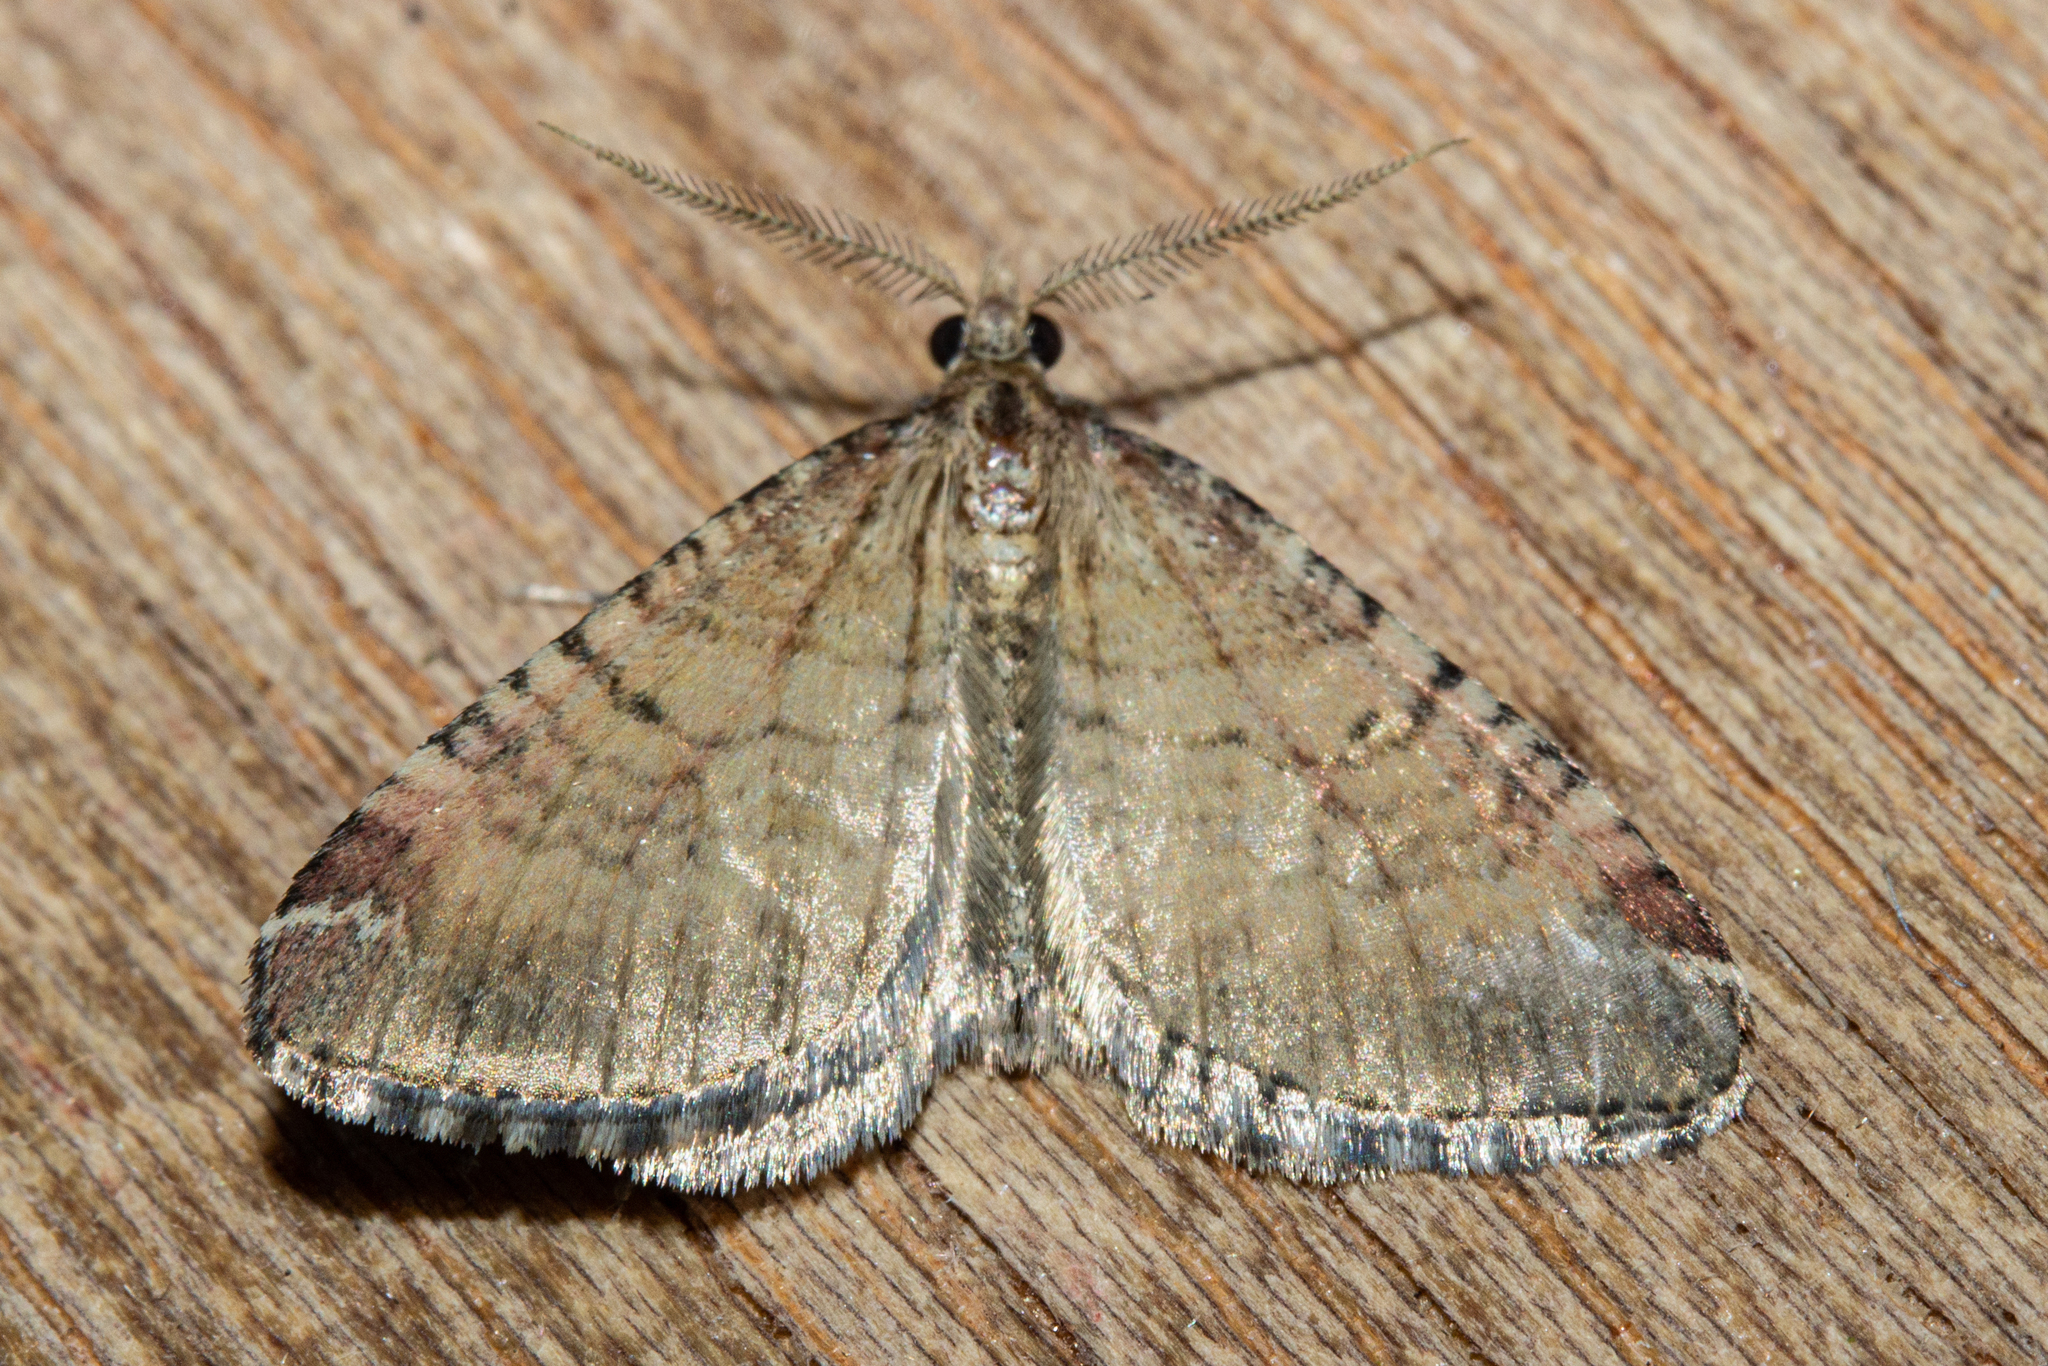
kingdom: Animalia
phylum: Arthropoda
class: Insecta
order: Lepidoptera
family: Geometridae
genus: Asaphodes
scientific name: Asaphodes aegrota
